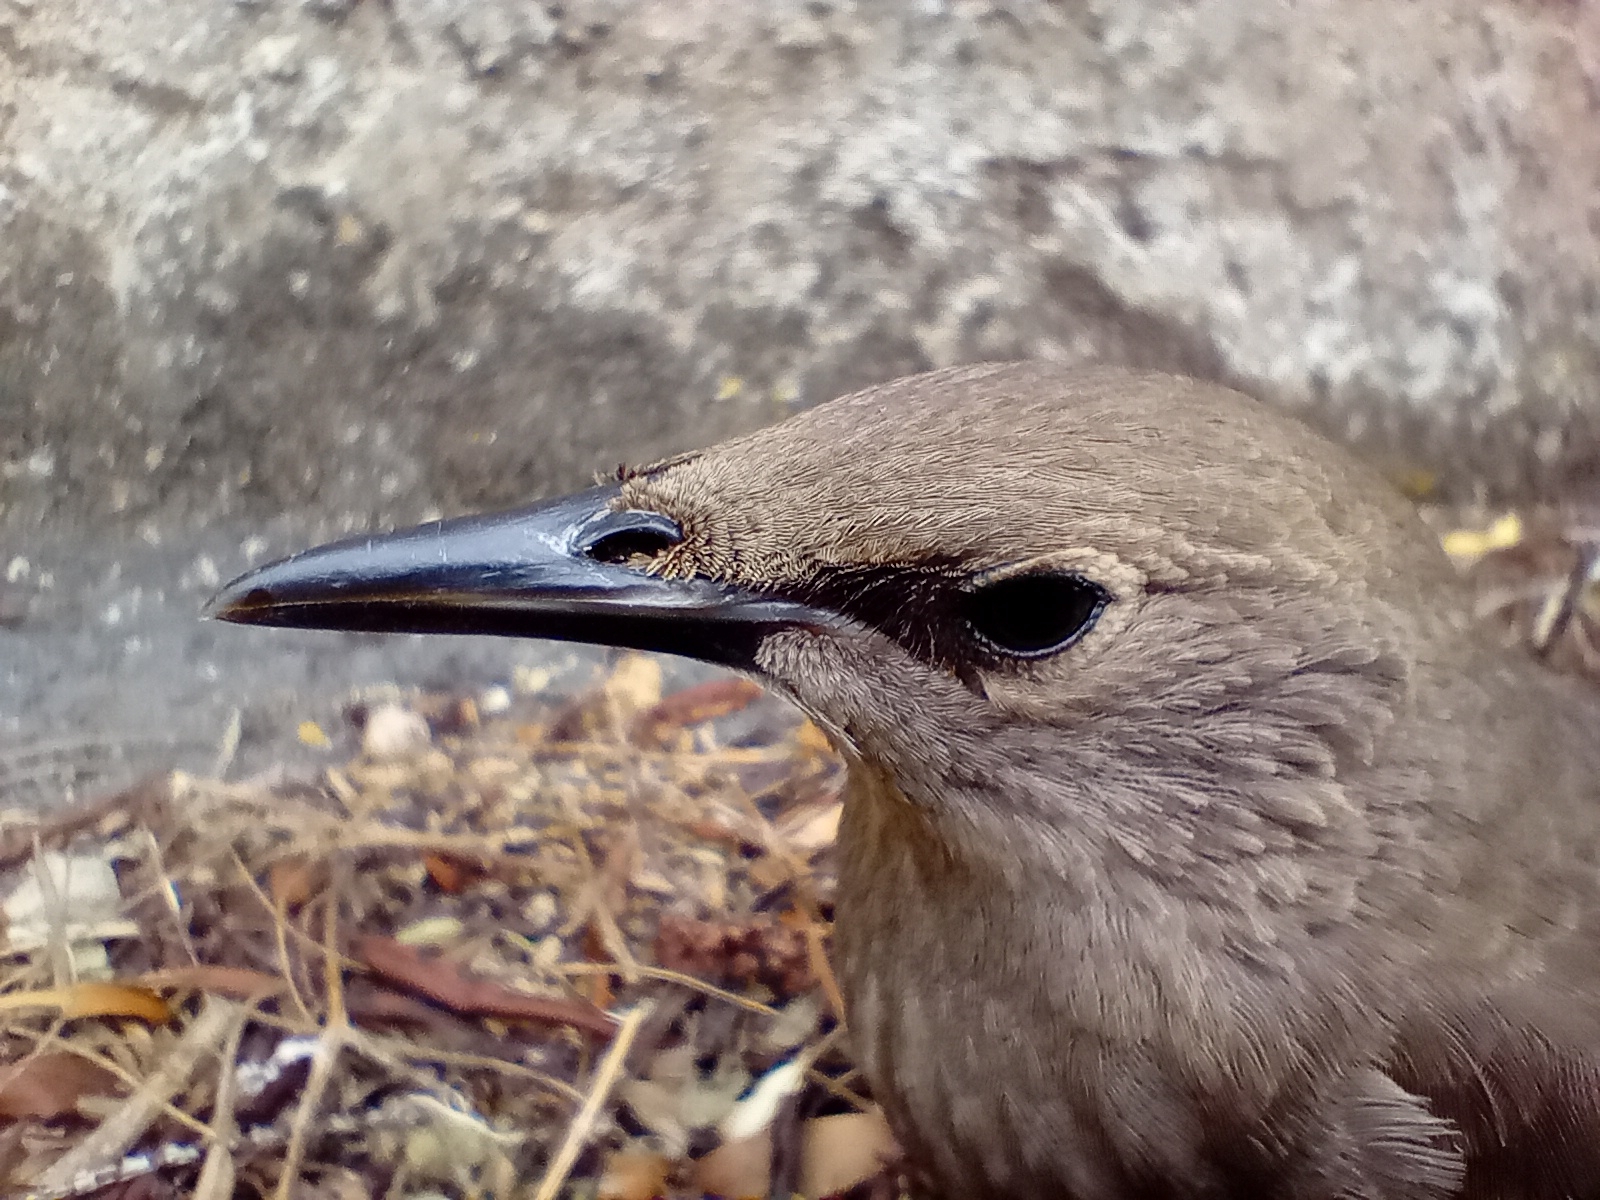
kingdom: Animalia
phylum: Chordata
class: Aves
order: Passeriformes
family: Sturnidae
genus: Sturnus
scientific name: Sturnus vulgaris
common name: Common starling
